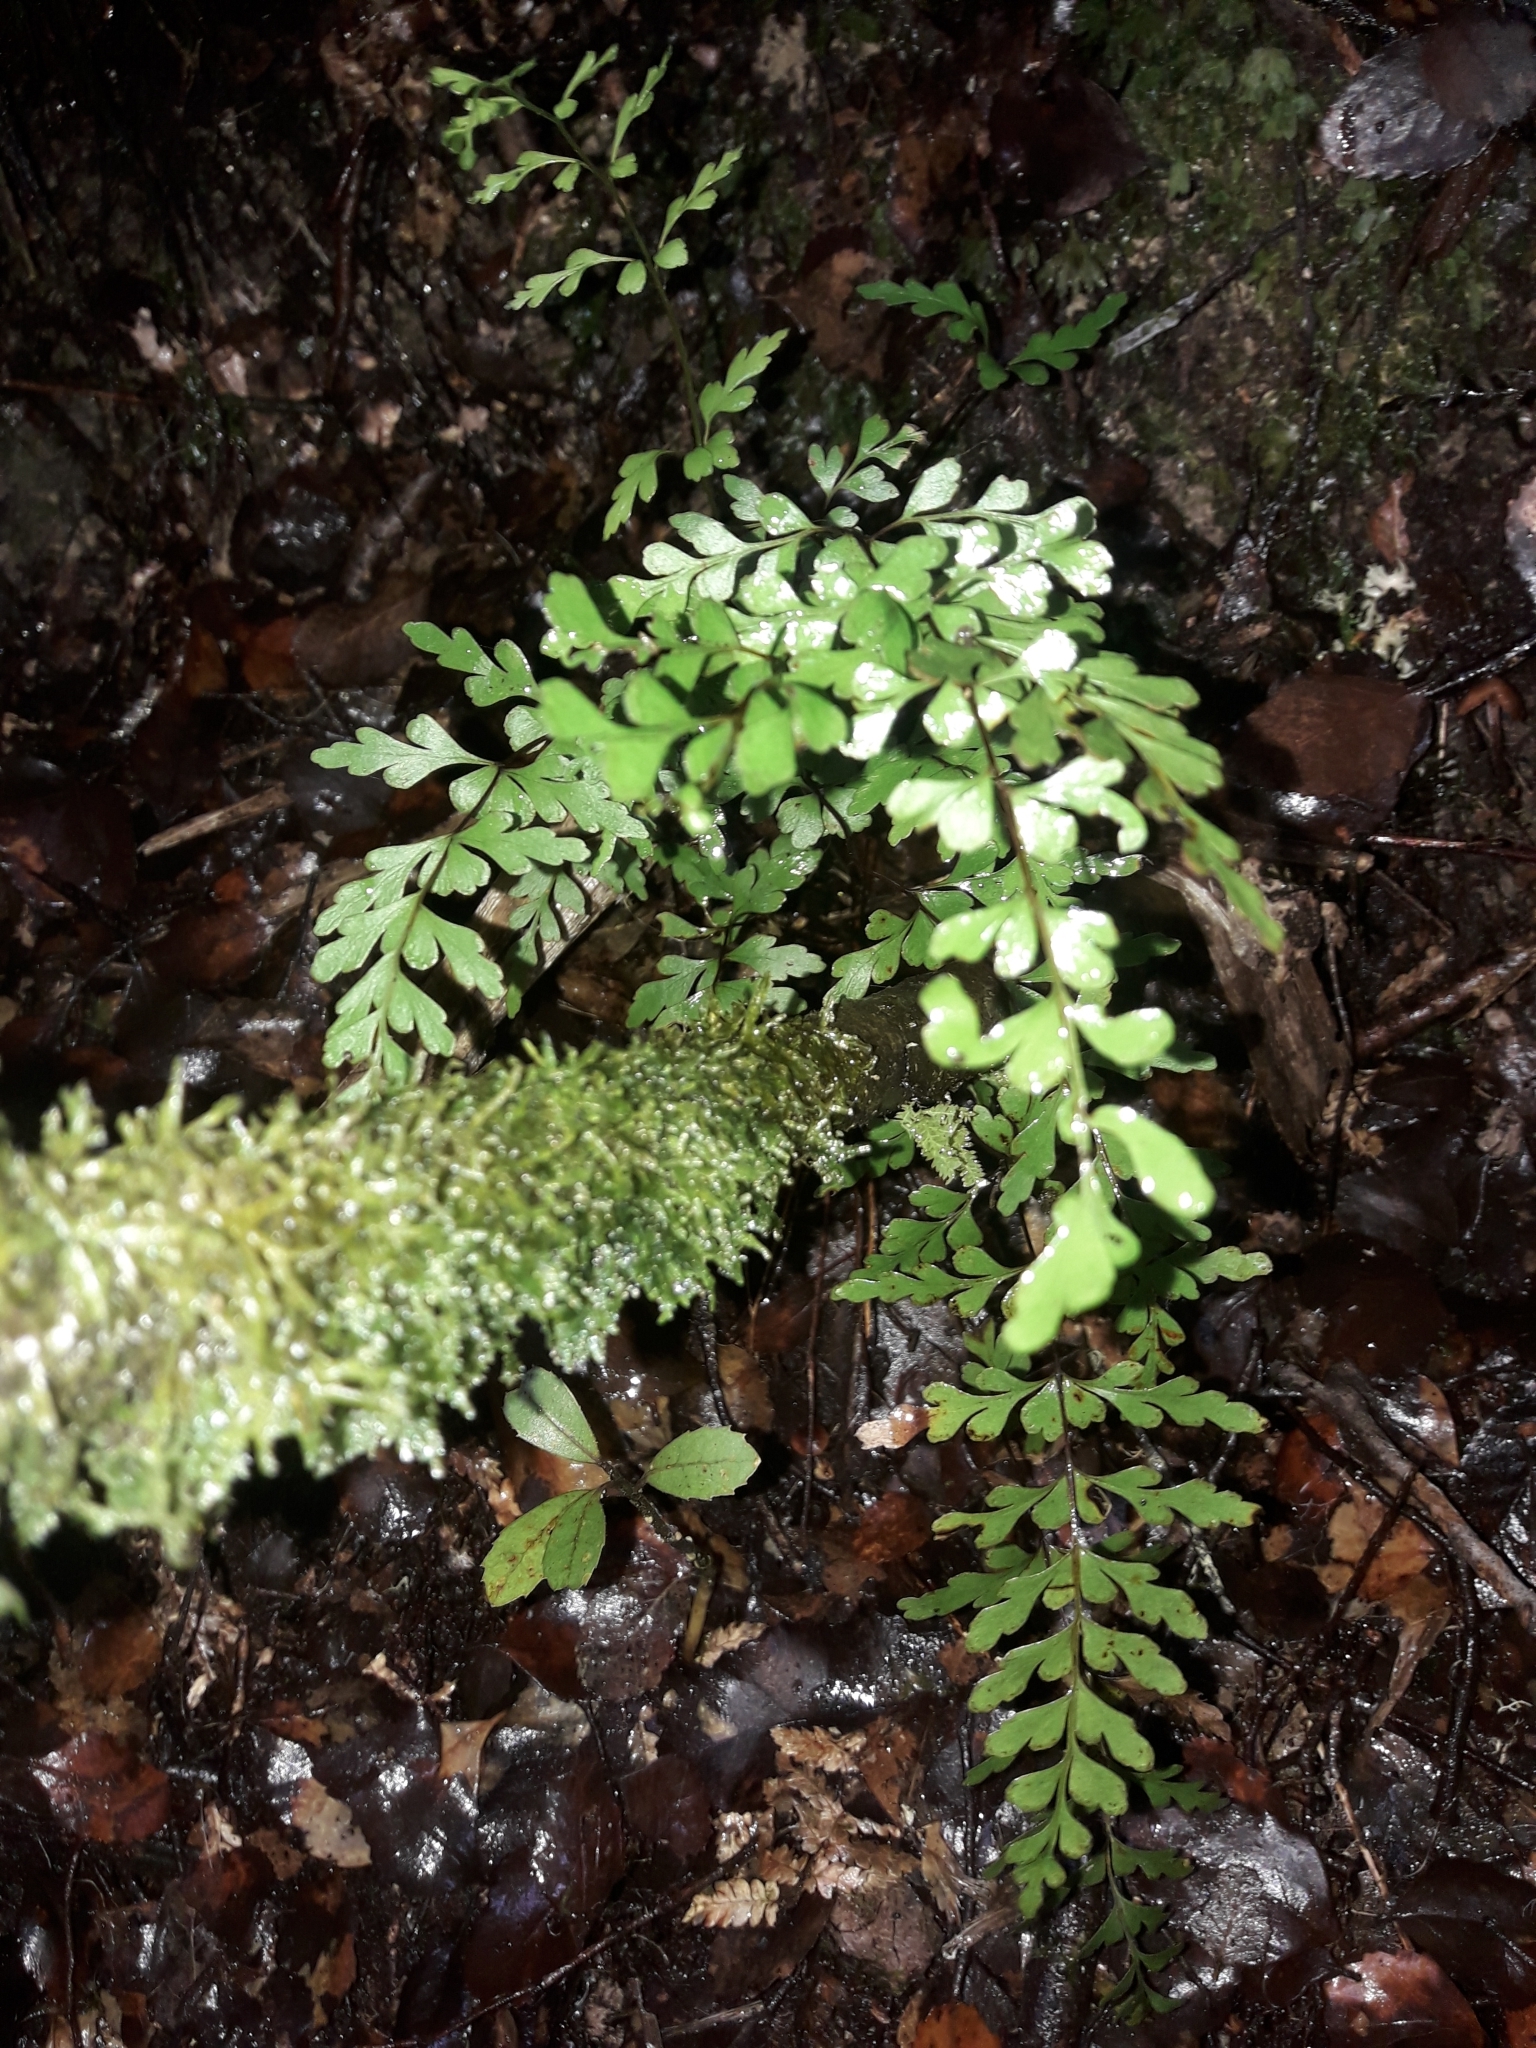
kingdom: Plantae
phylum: Tracheophyta
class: Polypodiopsida
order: Polypodiales
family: Lindsaeaceae
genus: Lindsaea
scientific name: Lindsaea trichomanoides
